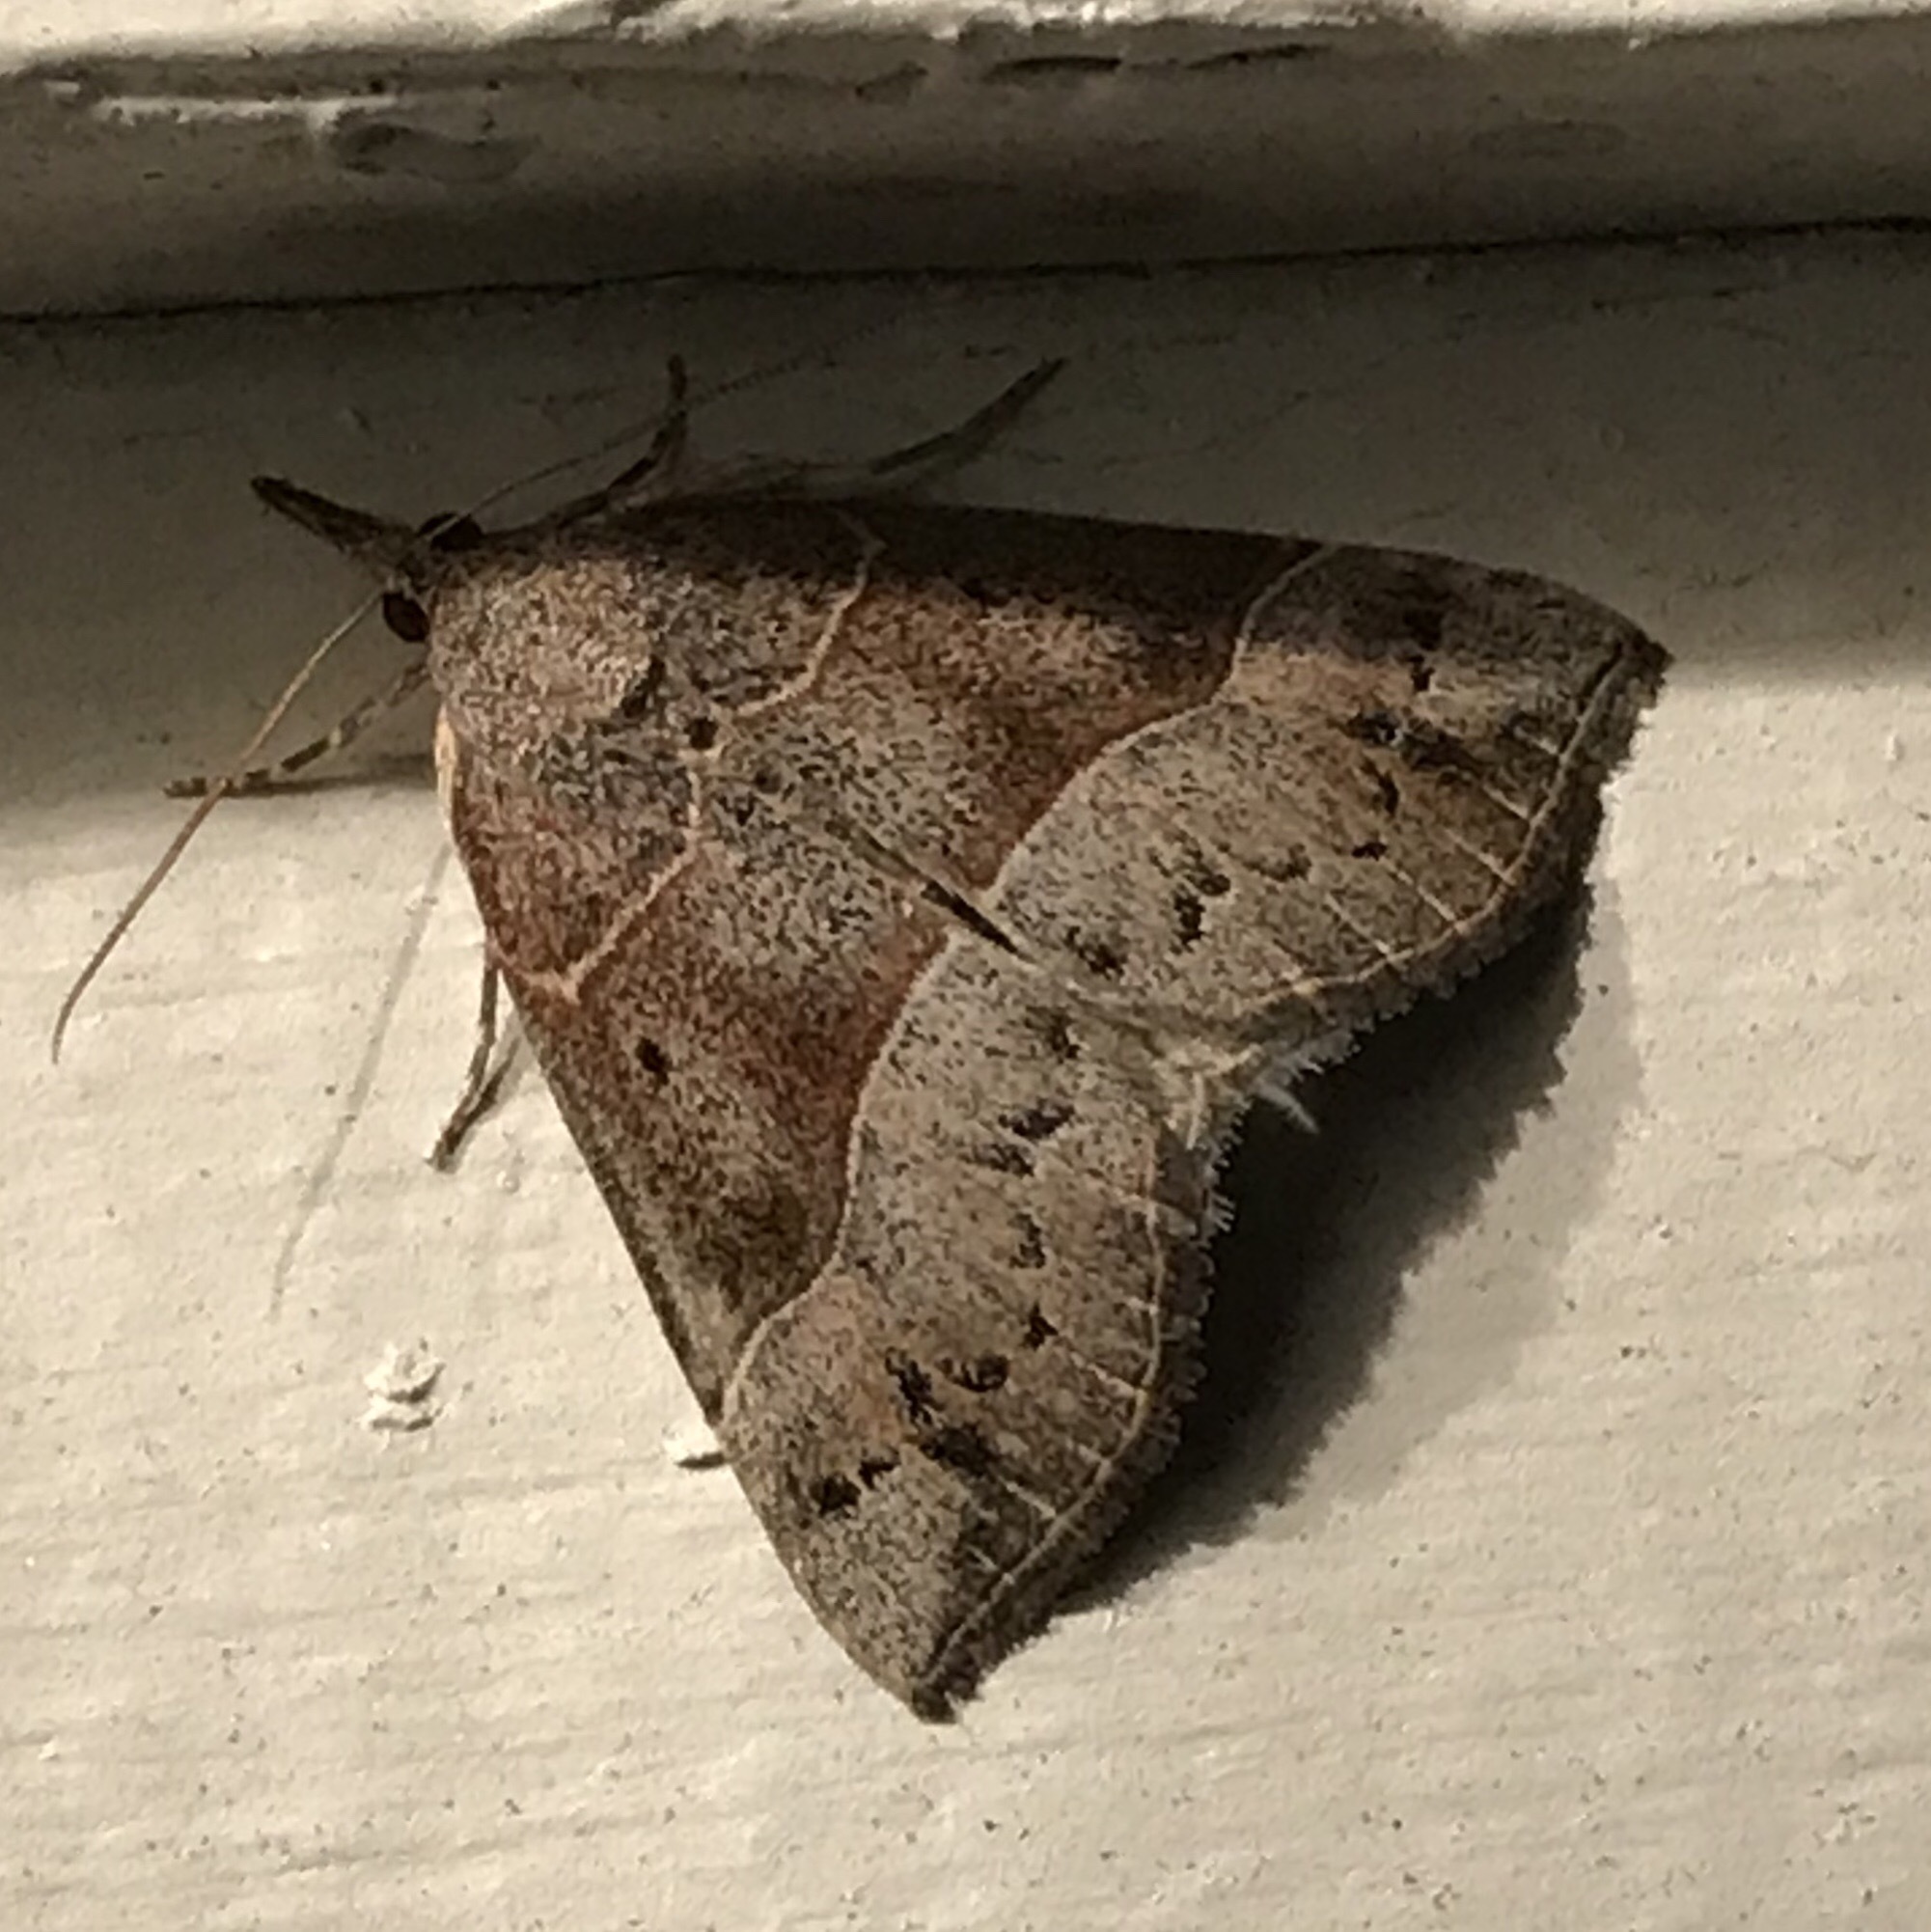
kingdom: Animalia
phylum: Arthropoda
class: Insecta
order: Lepidoptera
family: Erebidae
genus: Hypena
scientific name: Hypena deceptalis
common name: Deceptive snout
